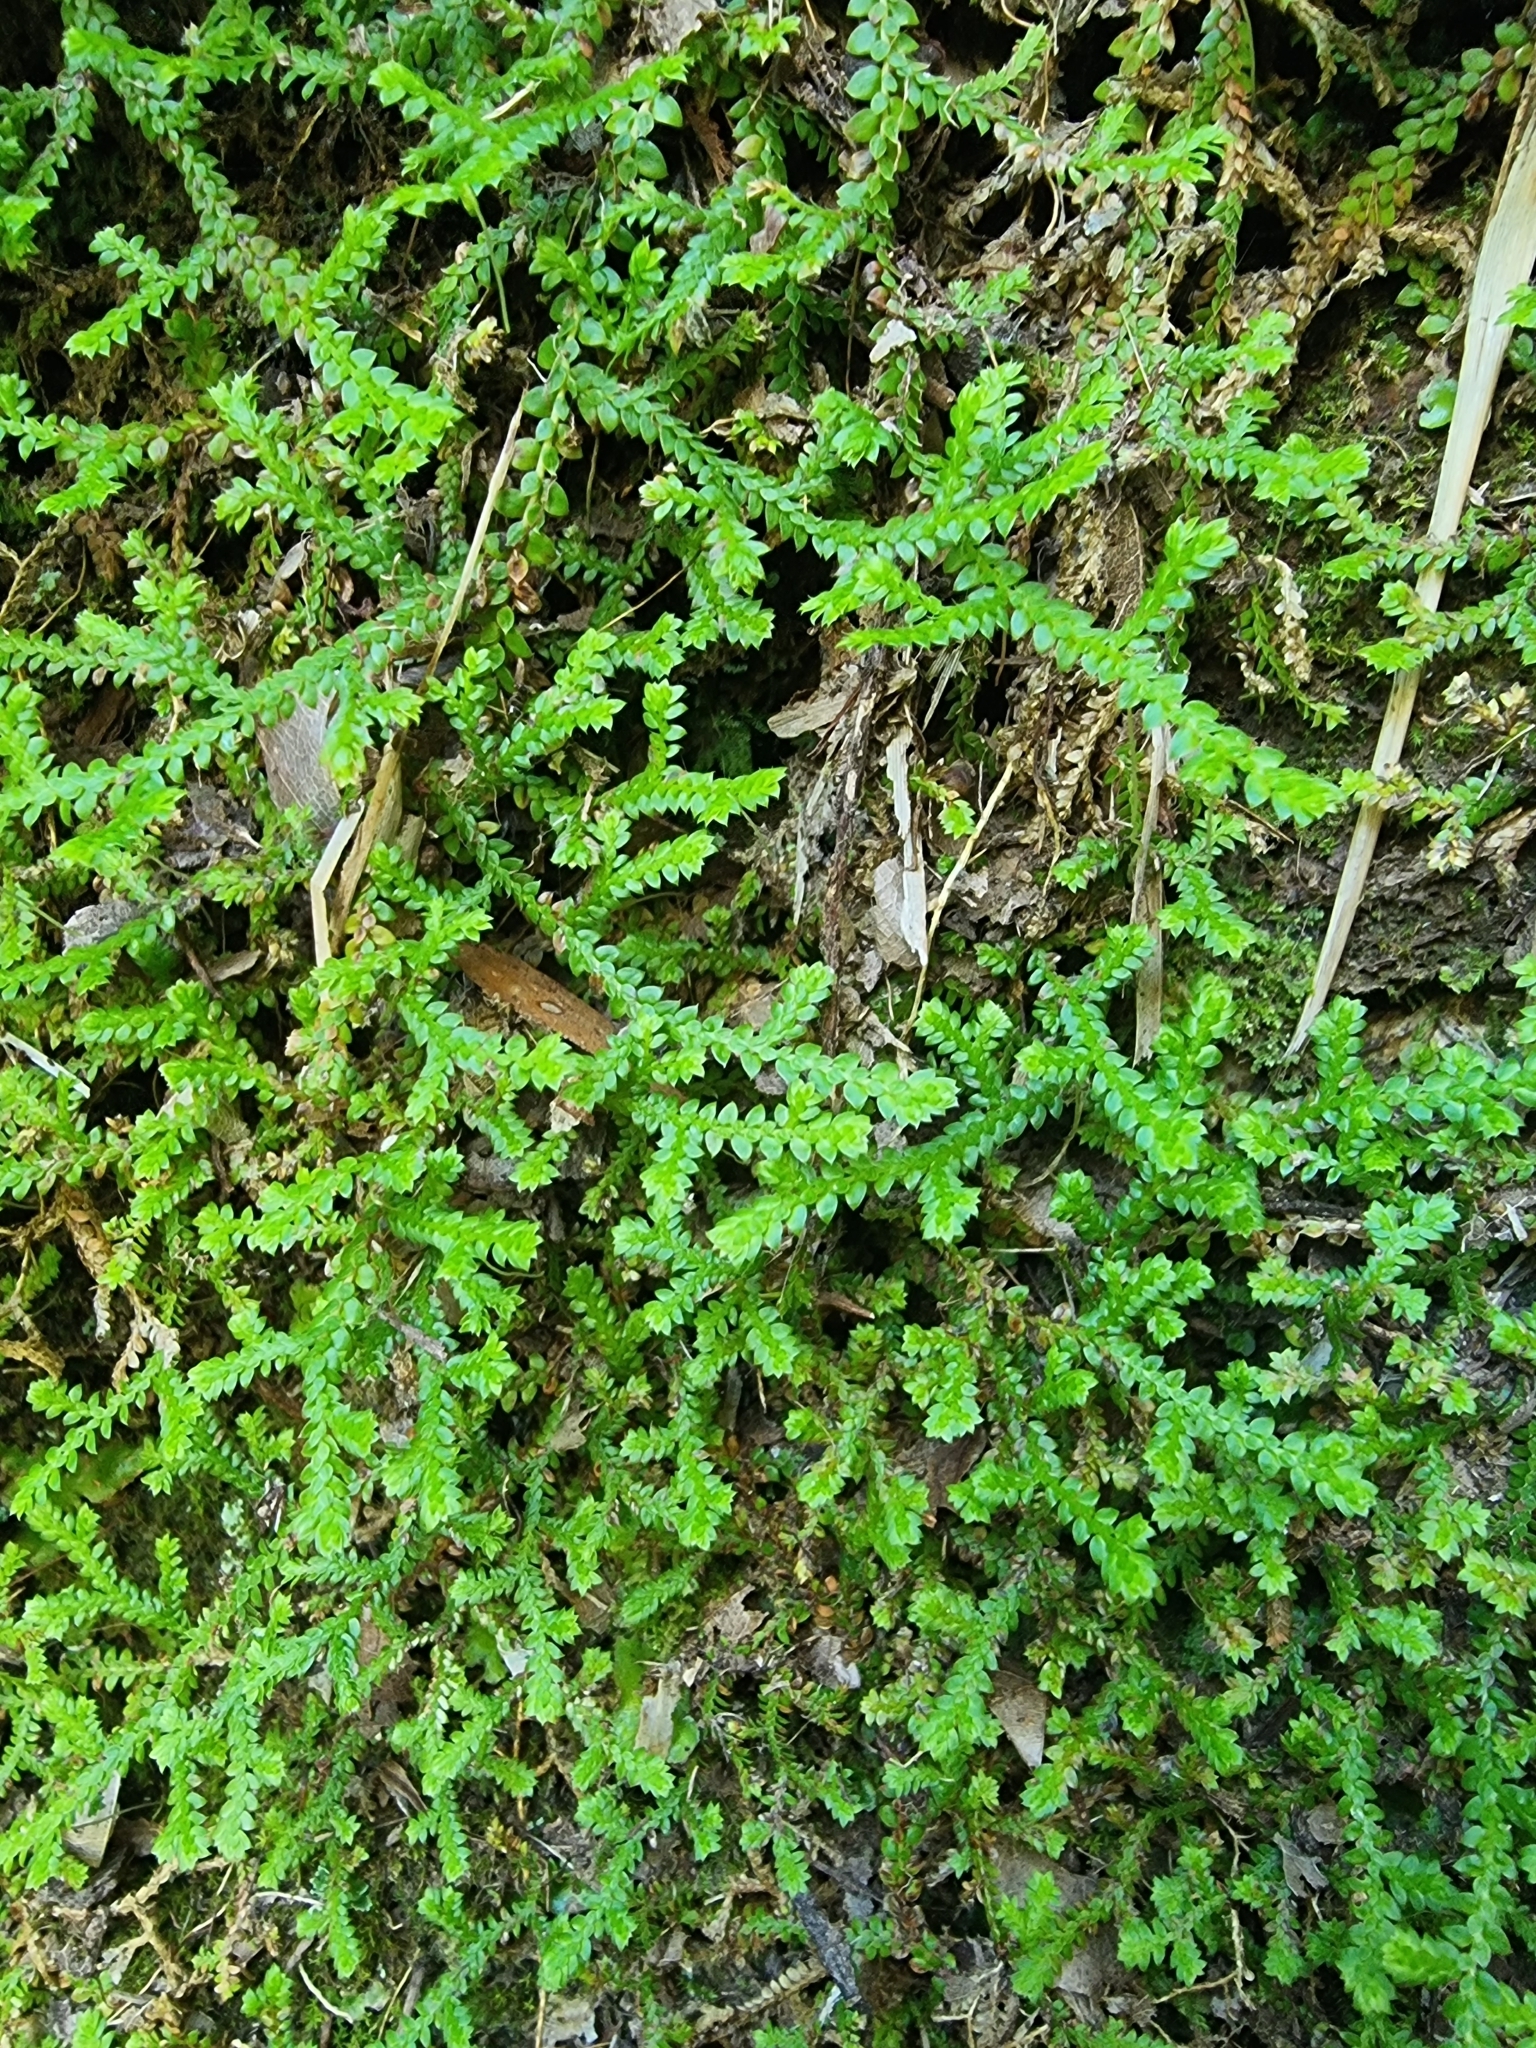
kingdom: Plantae
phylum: Tracheophyta
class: Lycopodiopsida
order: Selaginellales
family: Selaginellaceae
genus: Selaginella
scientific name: Selaginella denticulata
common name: Toothed-leaved clubmoss
